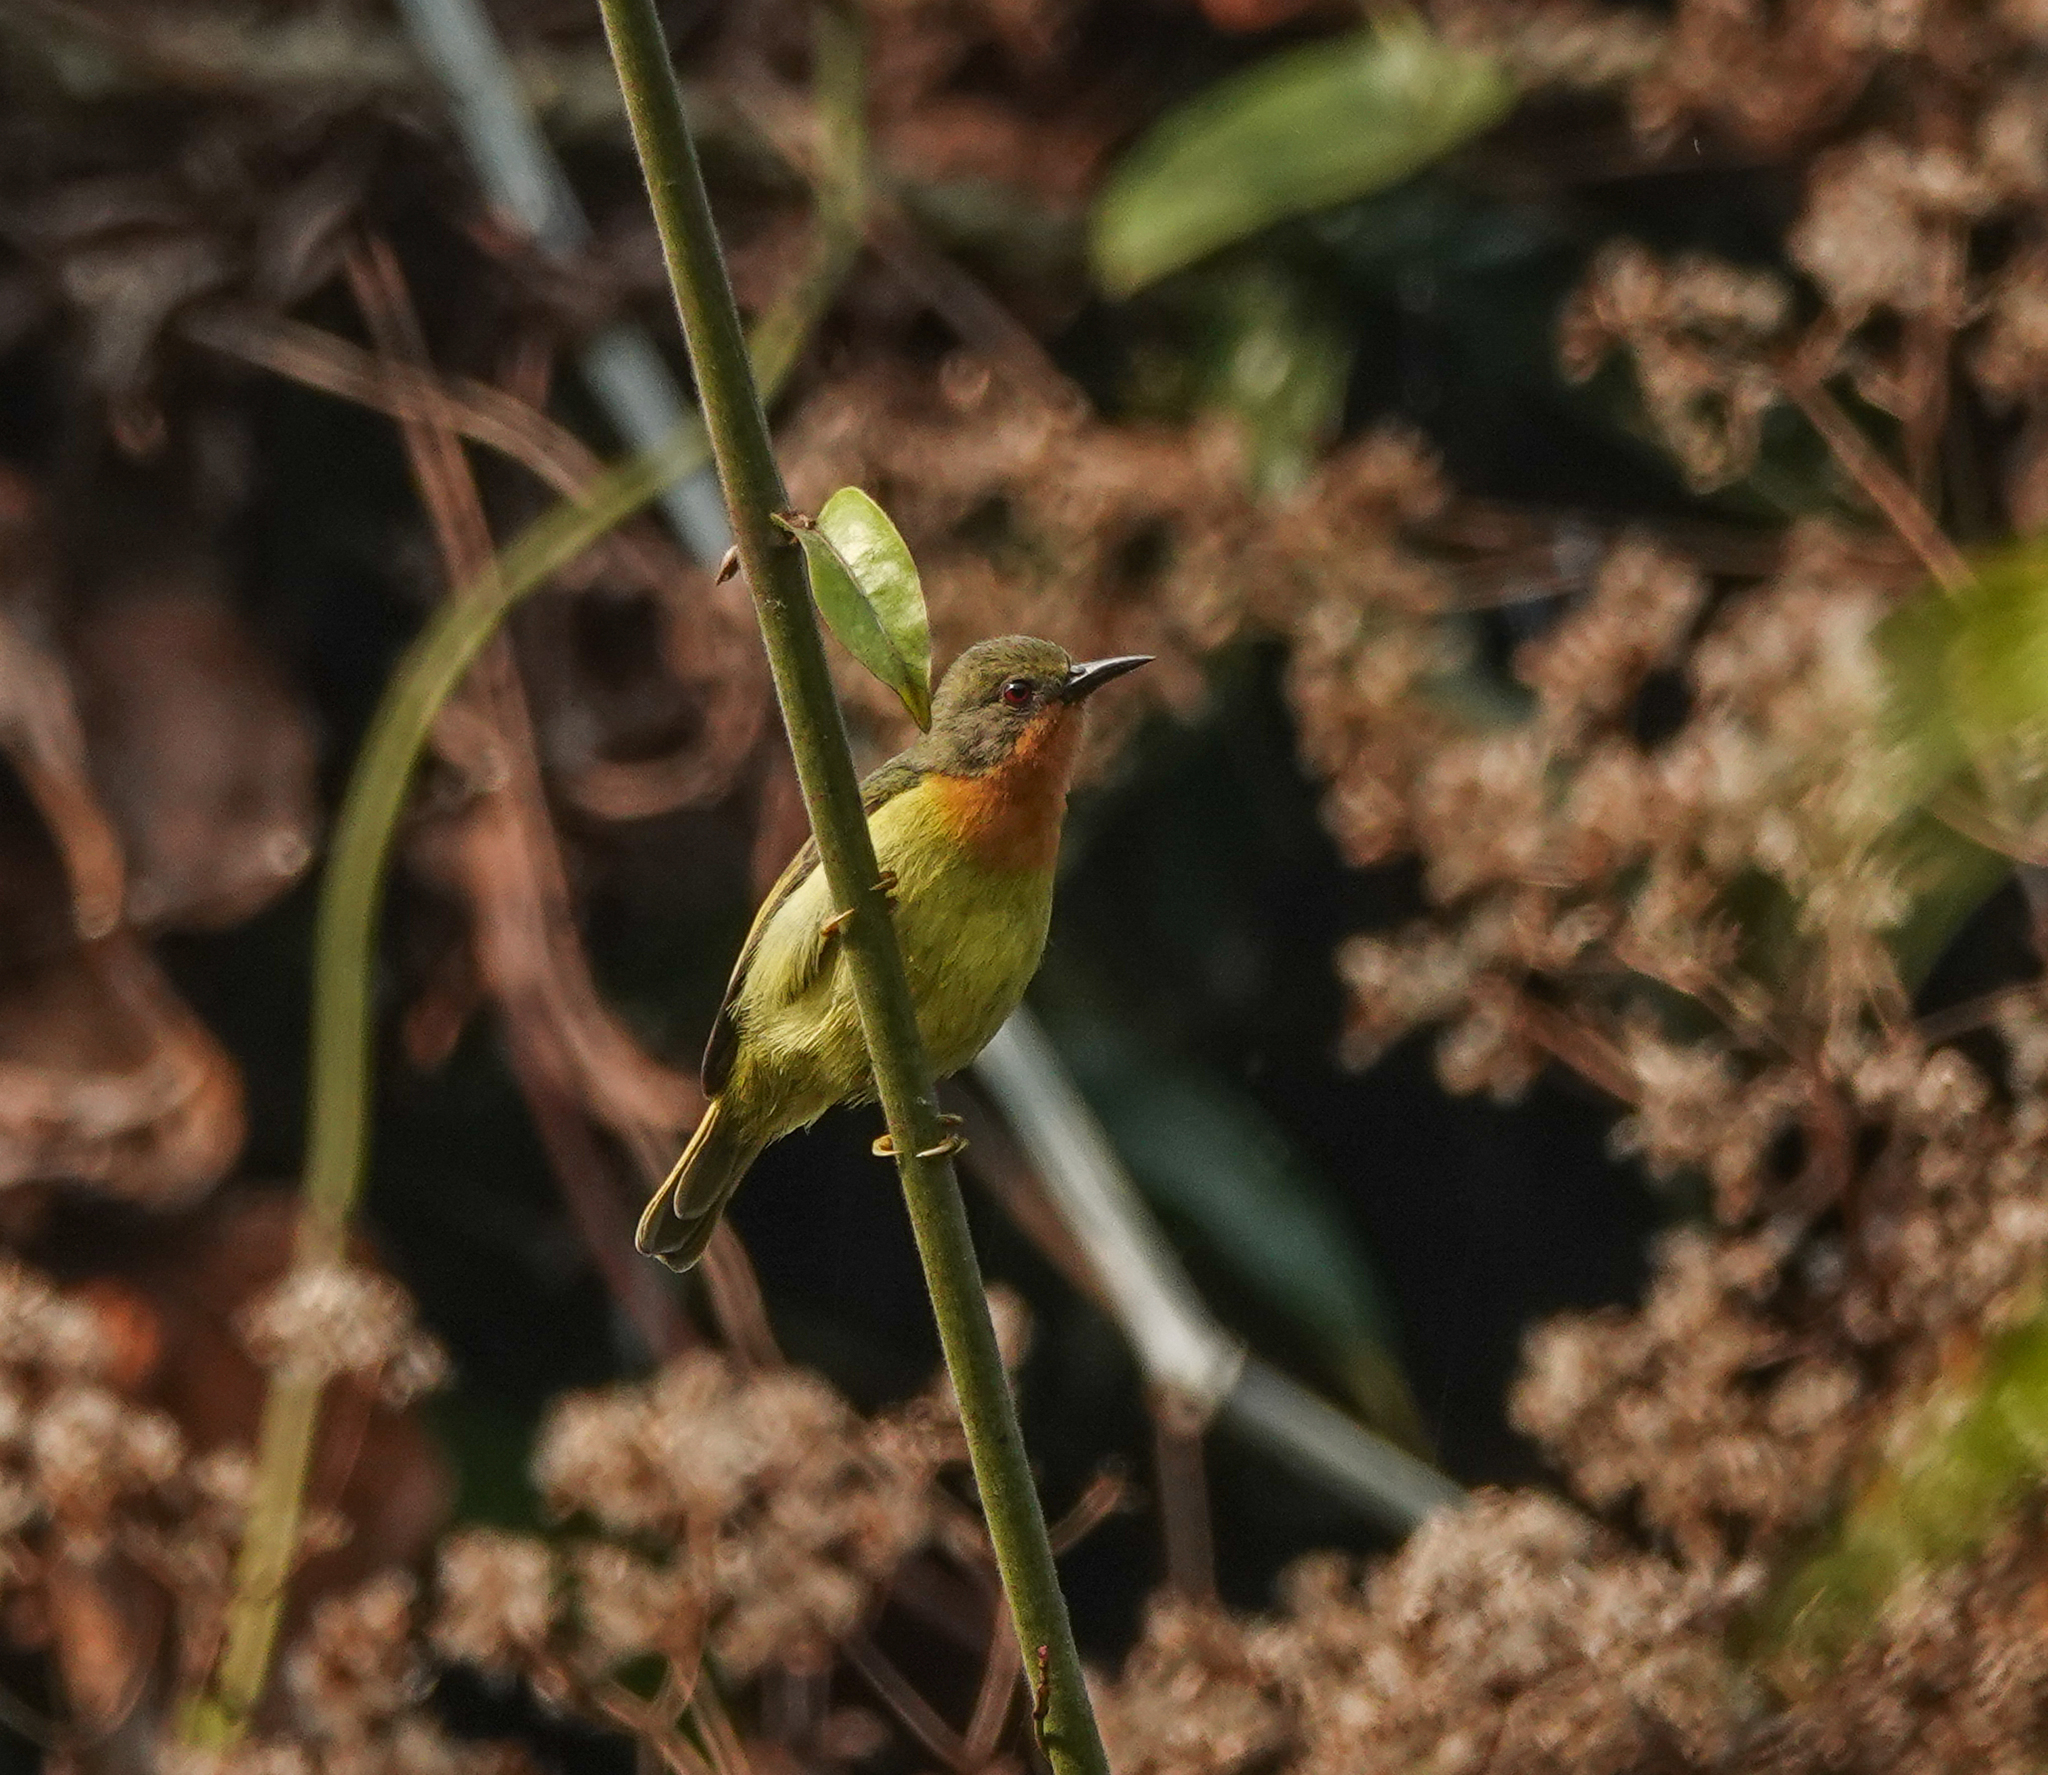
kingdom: Animalia
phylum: Chordata
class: Aves
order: Passeriformes
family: Nectariniidae
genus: Chalcoparia
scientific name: Chalcoparia singalensis
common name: Ruby-cheeked sunbird
